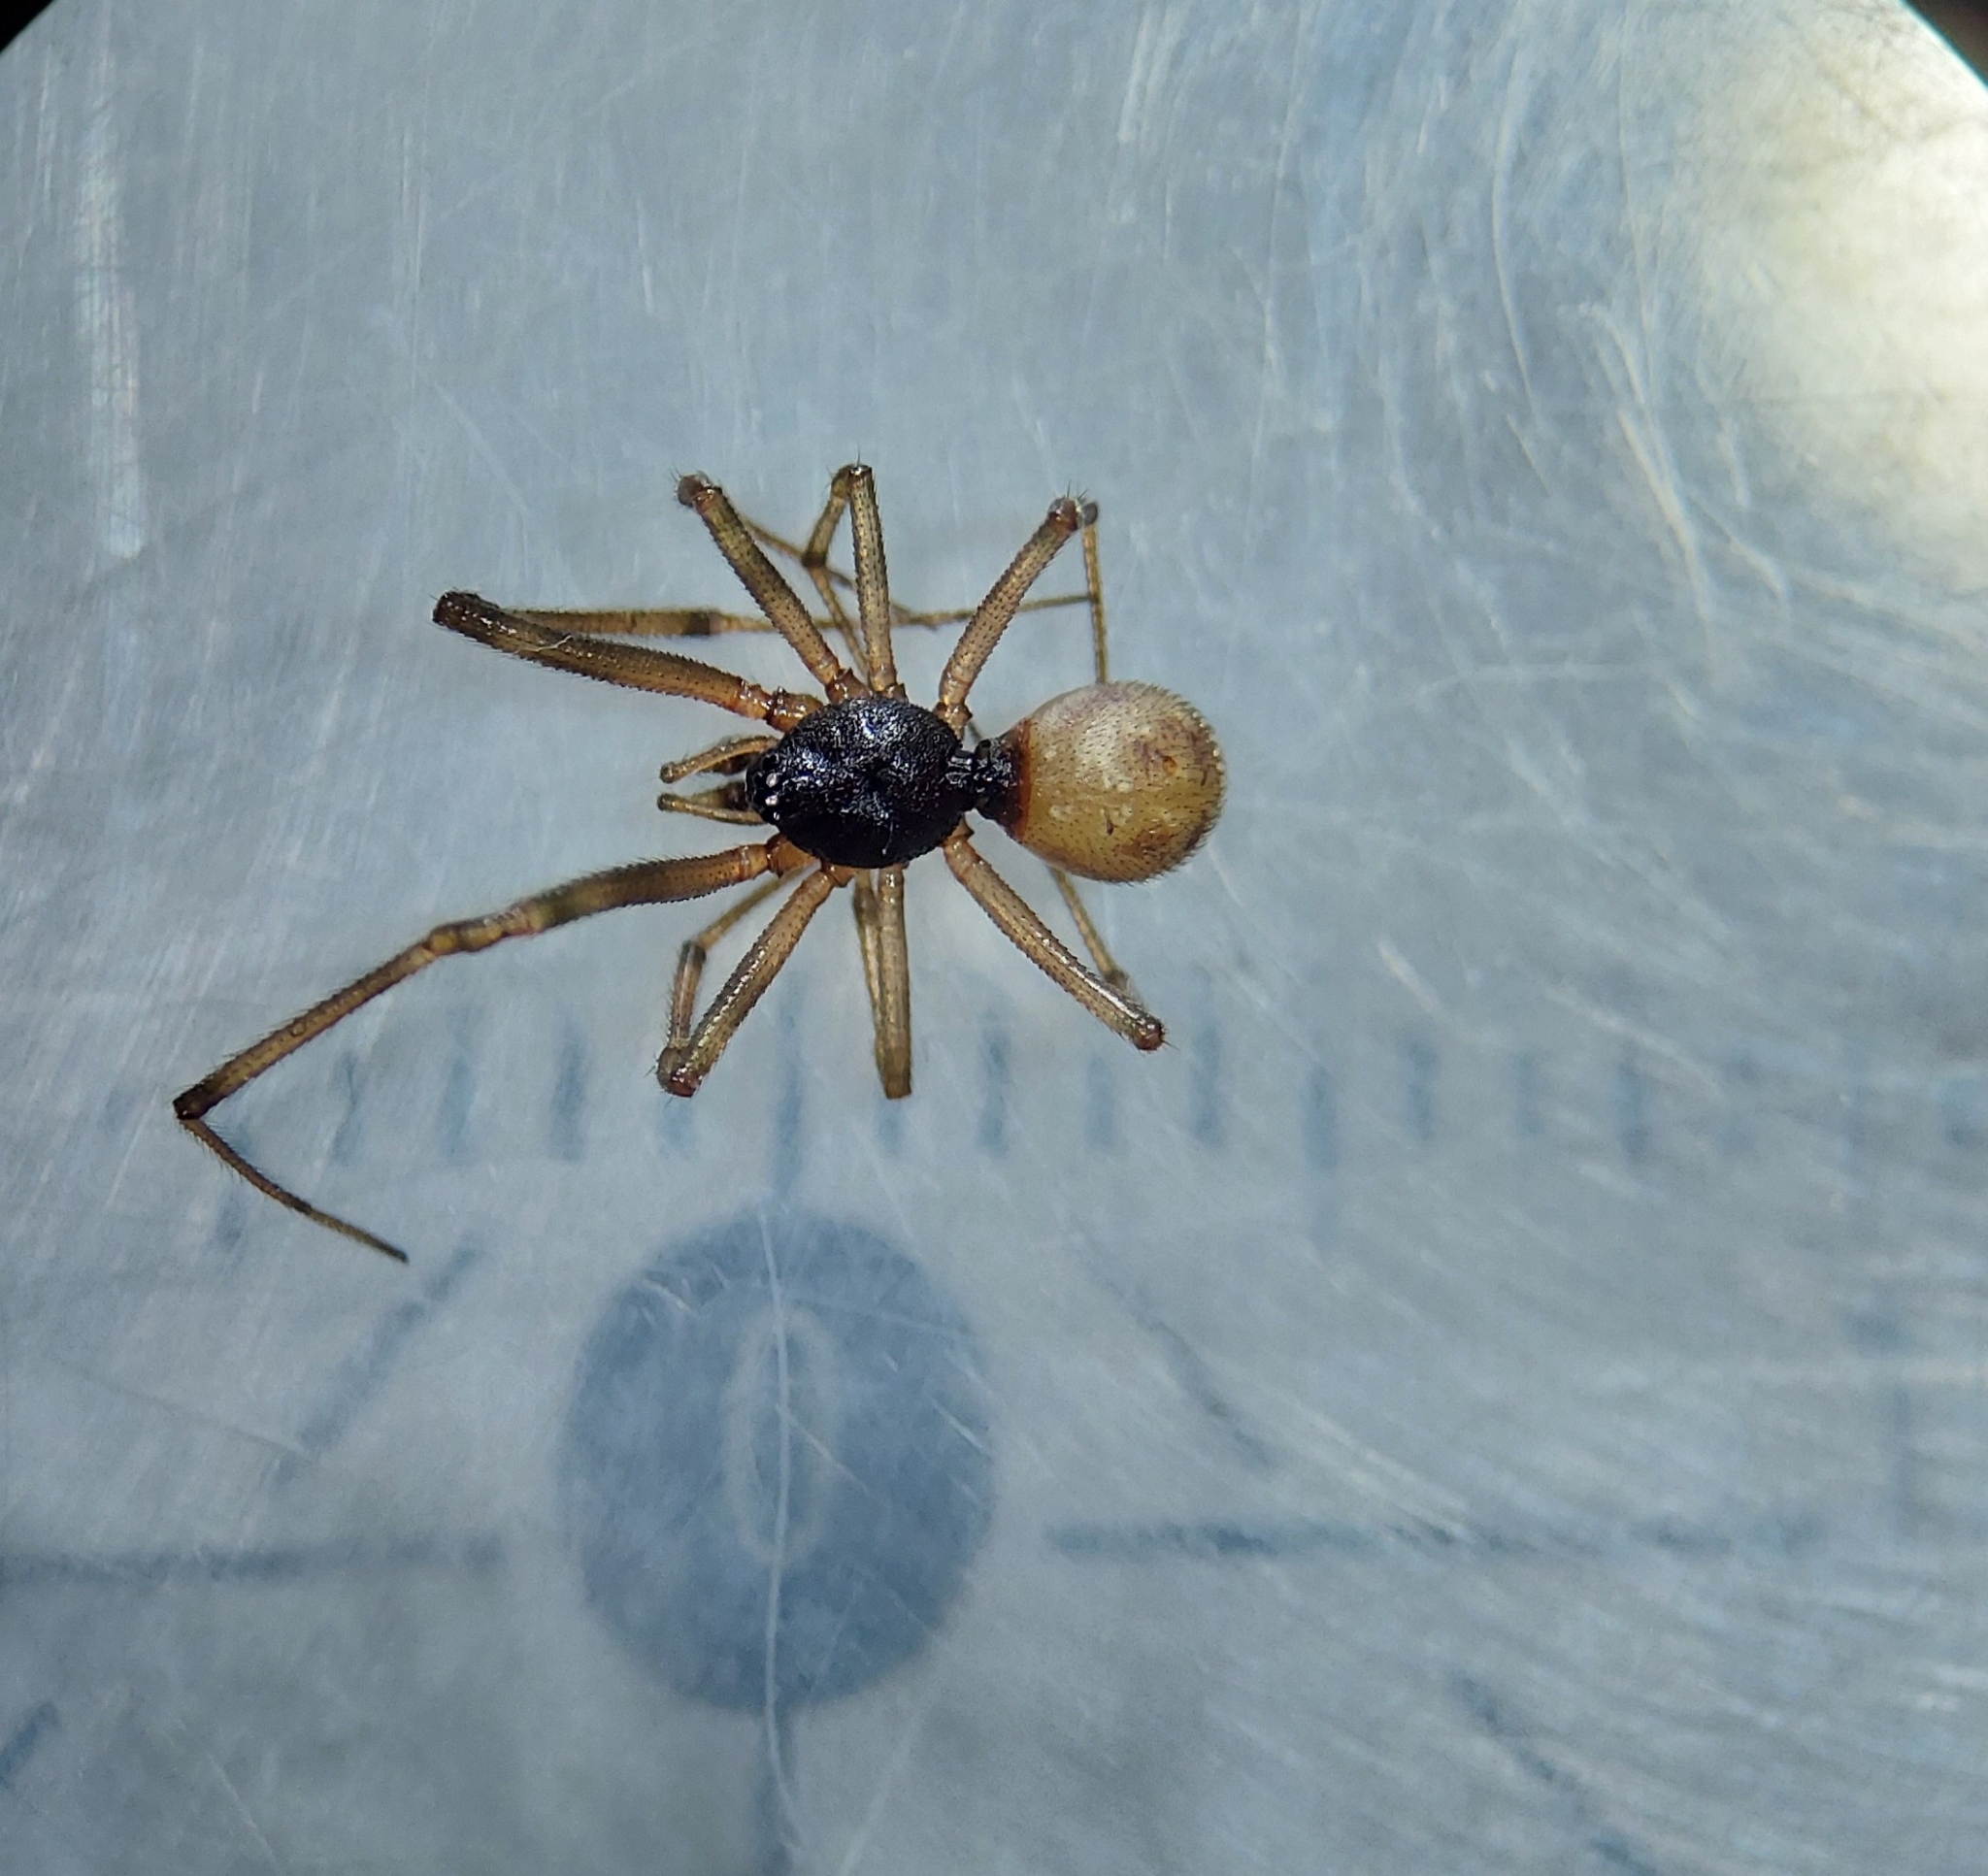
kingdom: Animalia
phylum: Arthropoda
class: Arachnida
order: Araneae
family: Theridiidae
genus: Steatoda
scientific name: Steatoda triangulosa
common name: Triangulate bud spider
